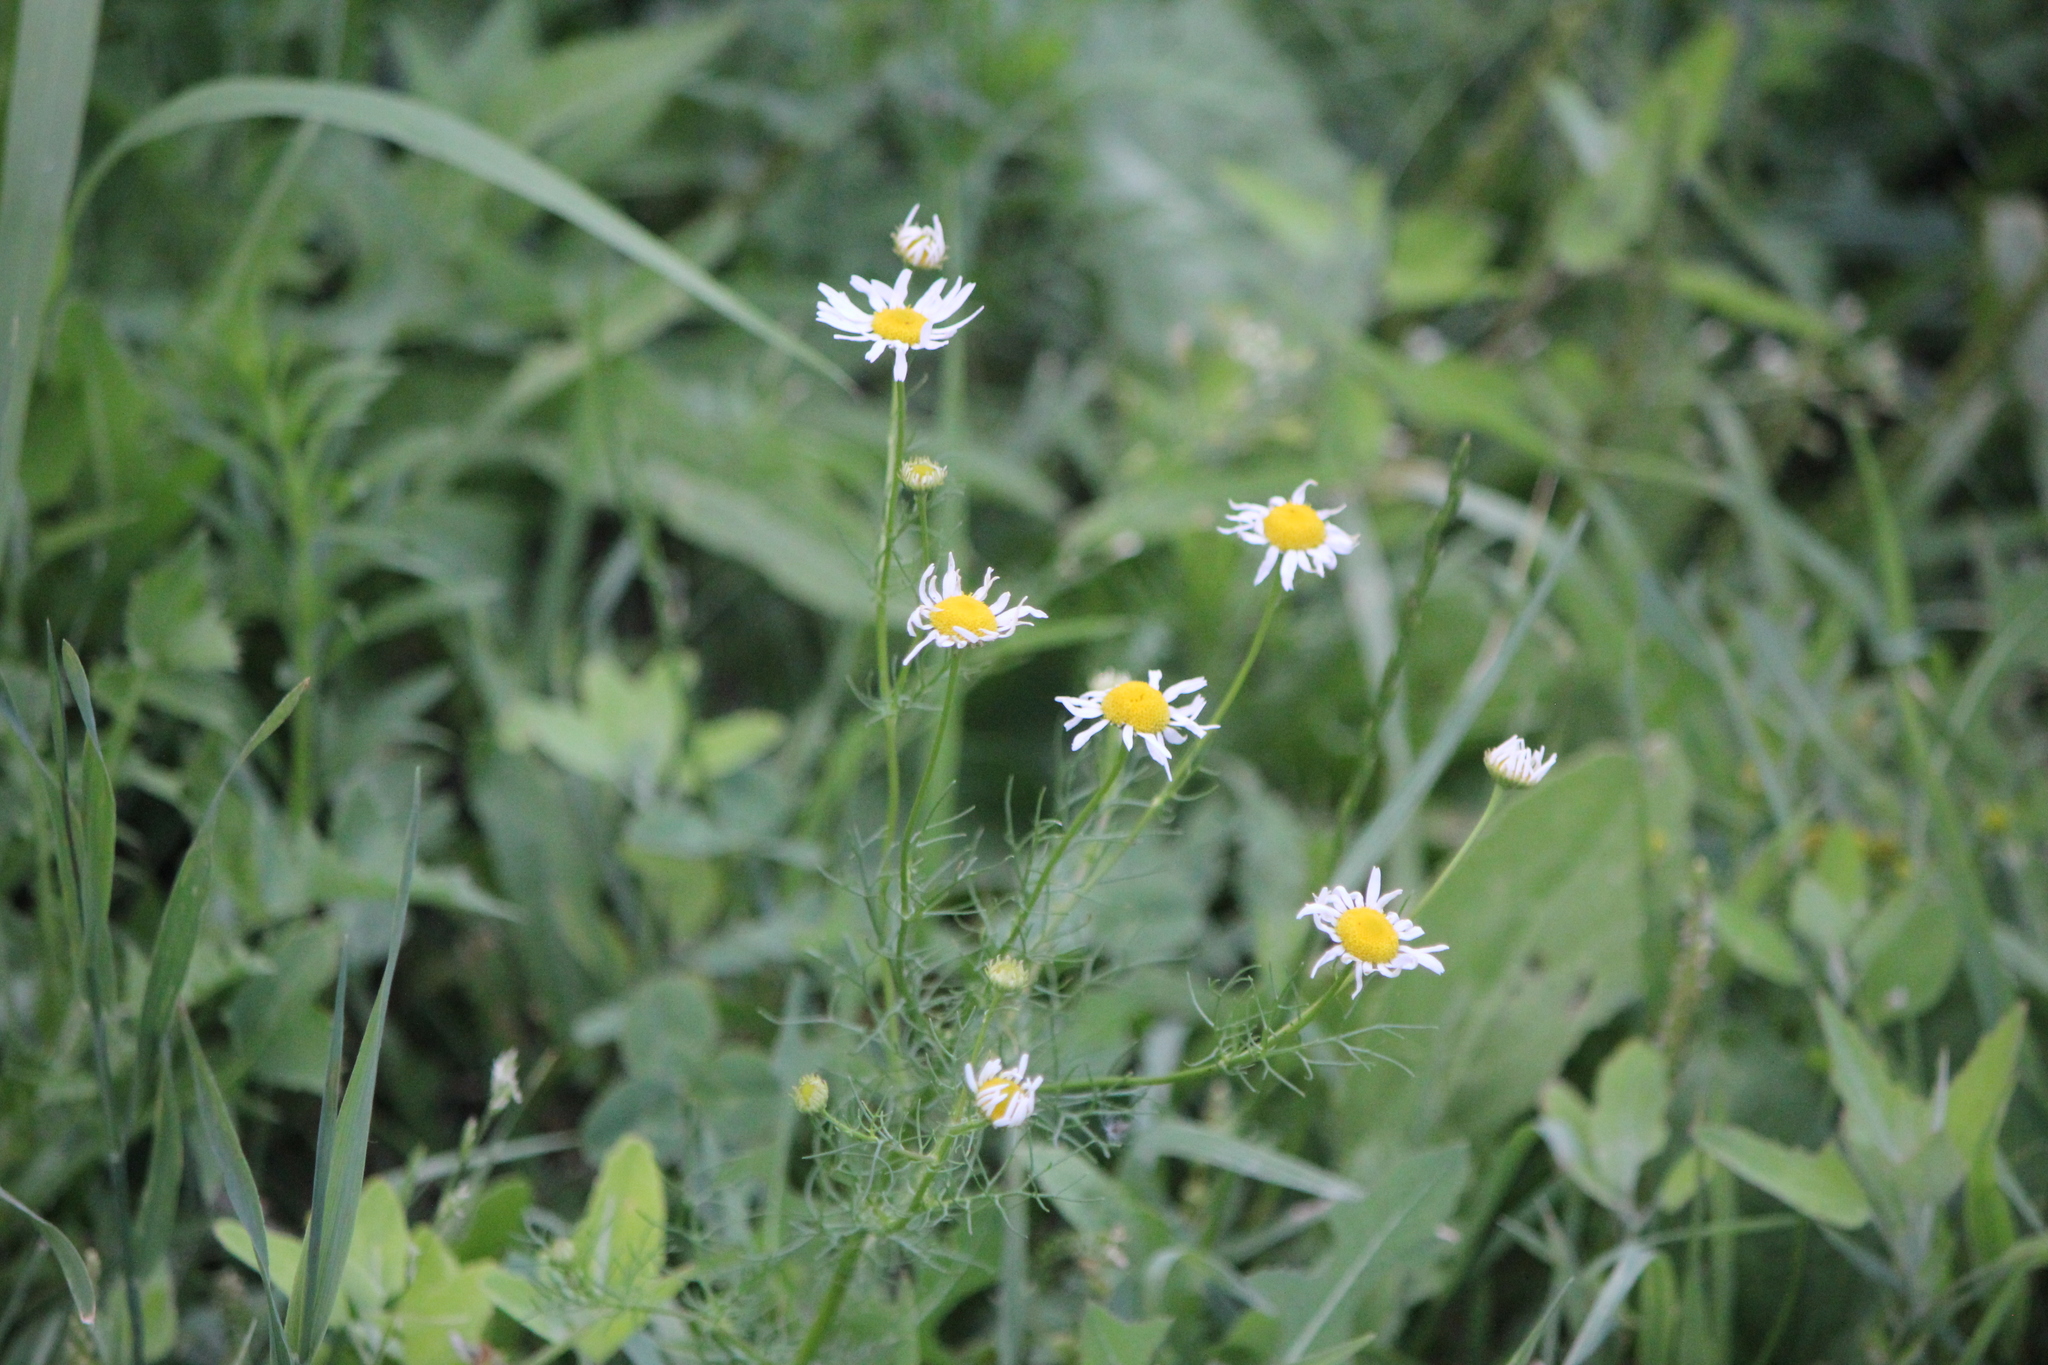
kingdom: Plantae
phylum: Tracheophyta
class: Magnoliopsida
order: Asterales
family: Asteraceae
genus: Tripleurospermum
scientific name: Tripleurospermum inodorum
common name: Scentless mayweed
